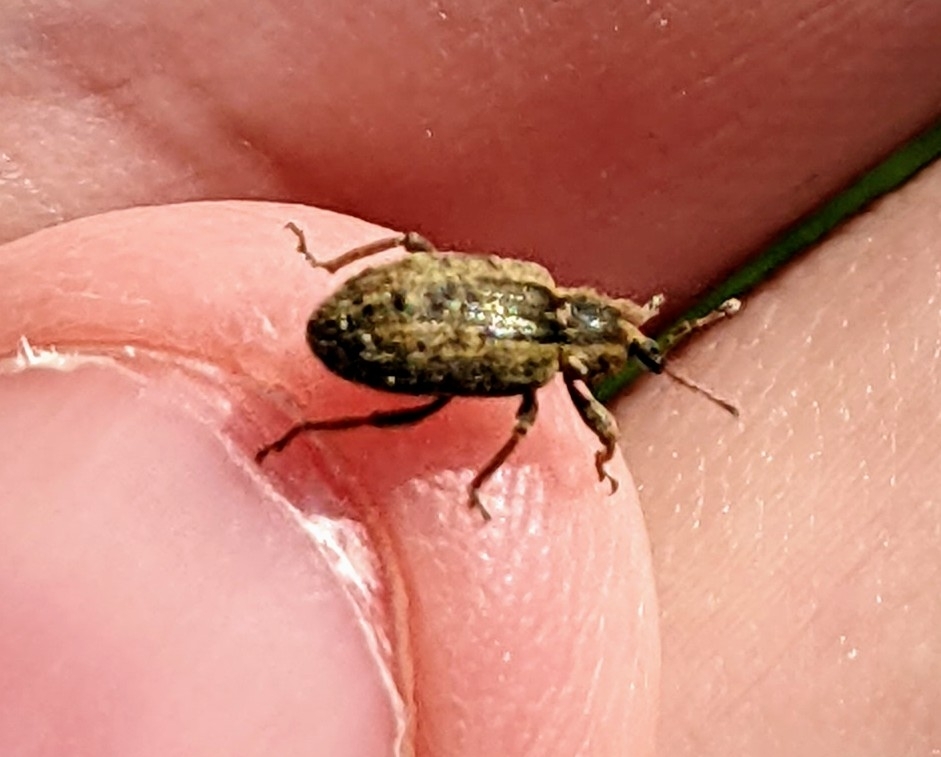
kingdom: Animalia
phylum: Arthropoda
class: Insecta
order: Coleoptera
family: Curculionidae
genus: Hypera
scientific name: Hypera postica
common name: Weevil
